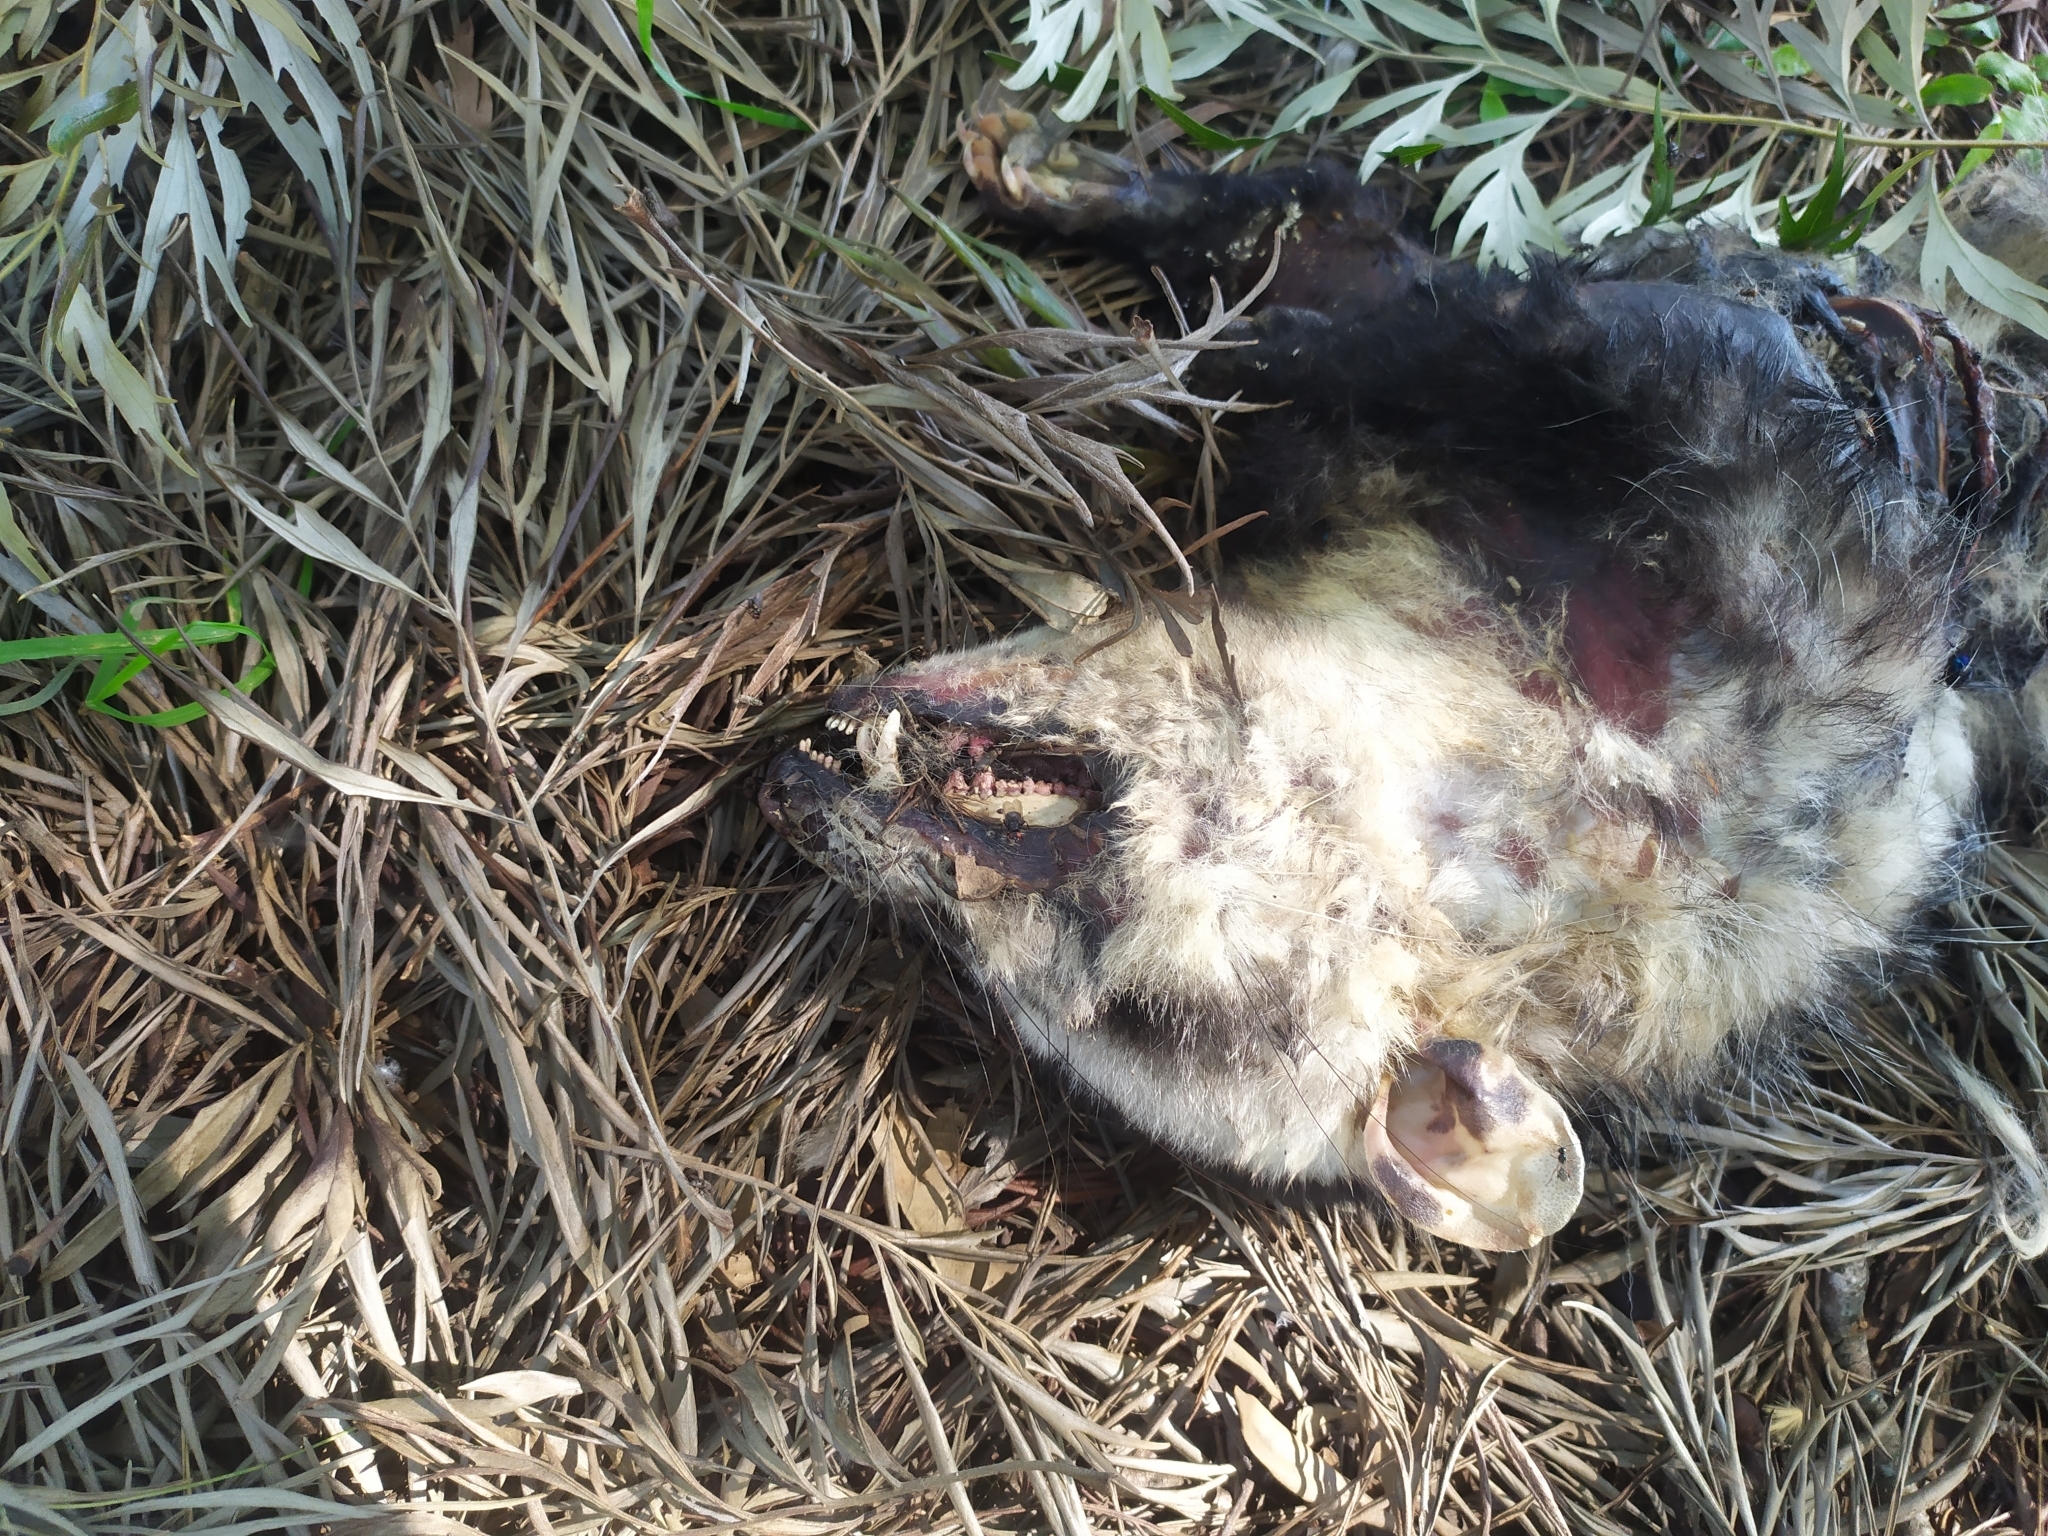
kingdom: Animalia
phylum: Chordata
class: Mammalia
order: Didelphimorphia
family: Didelphidae
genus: Didelphis
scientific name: Didelphis albiventris
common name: White-eared opossum
